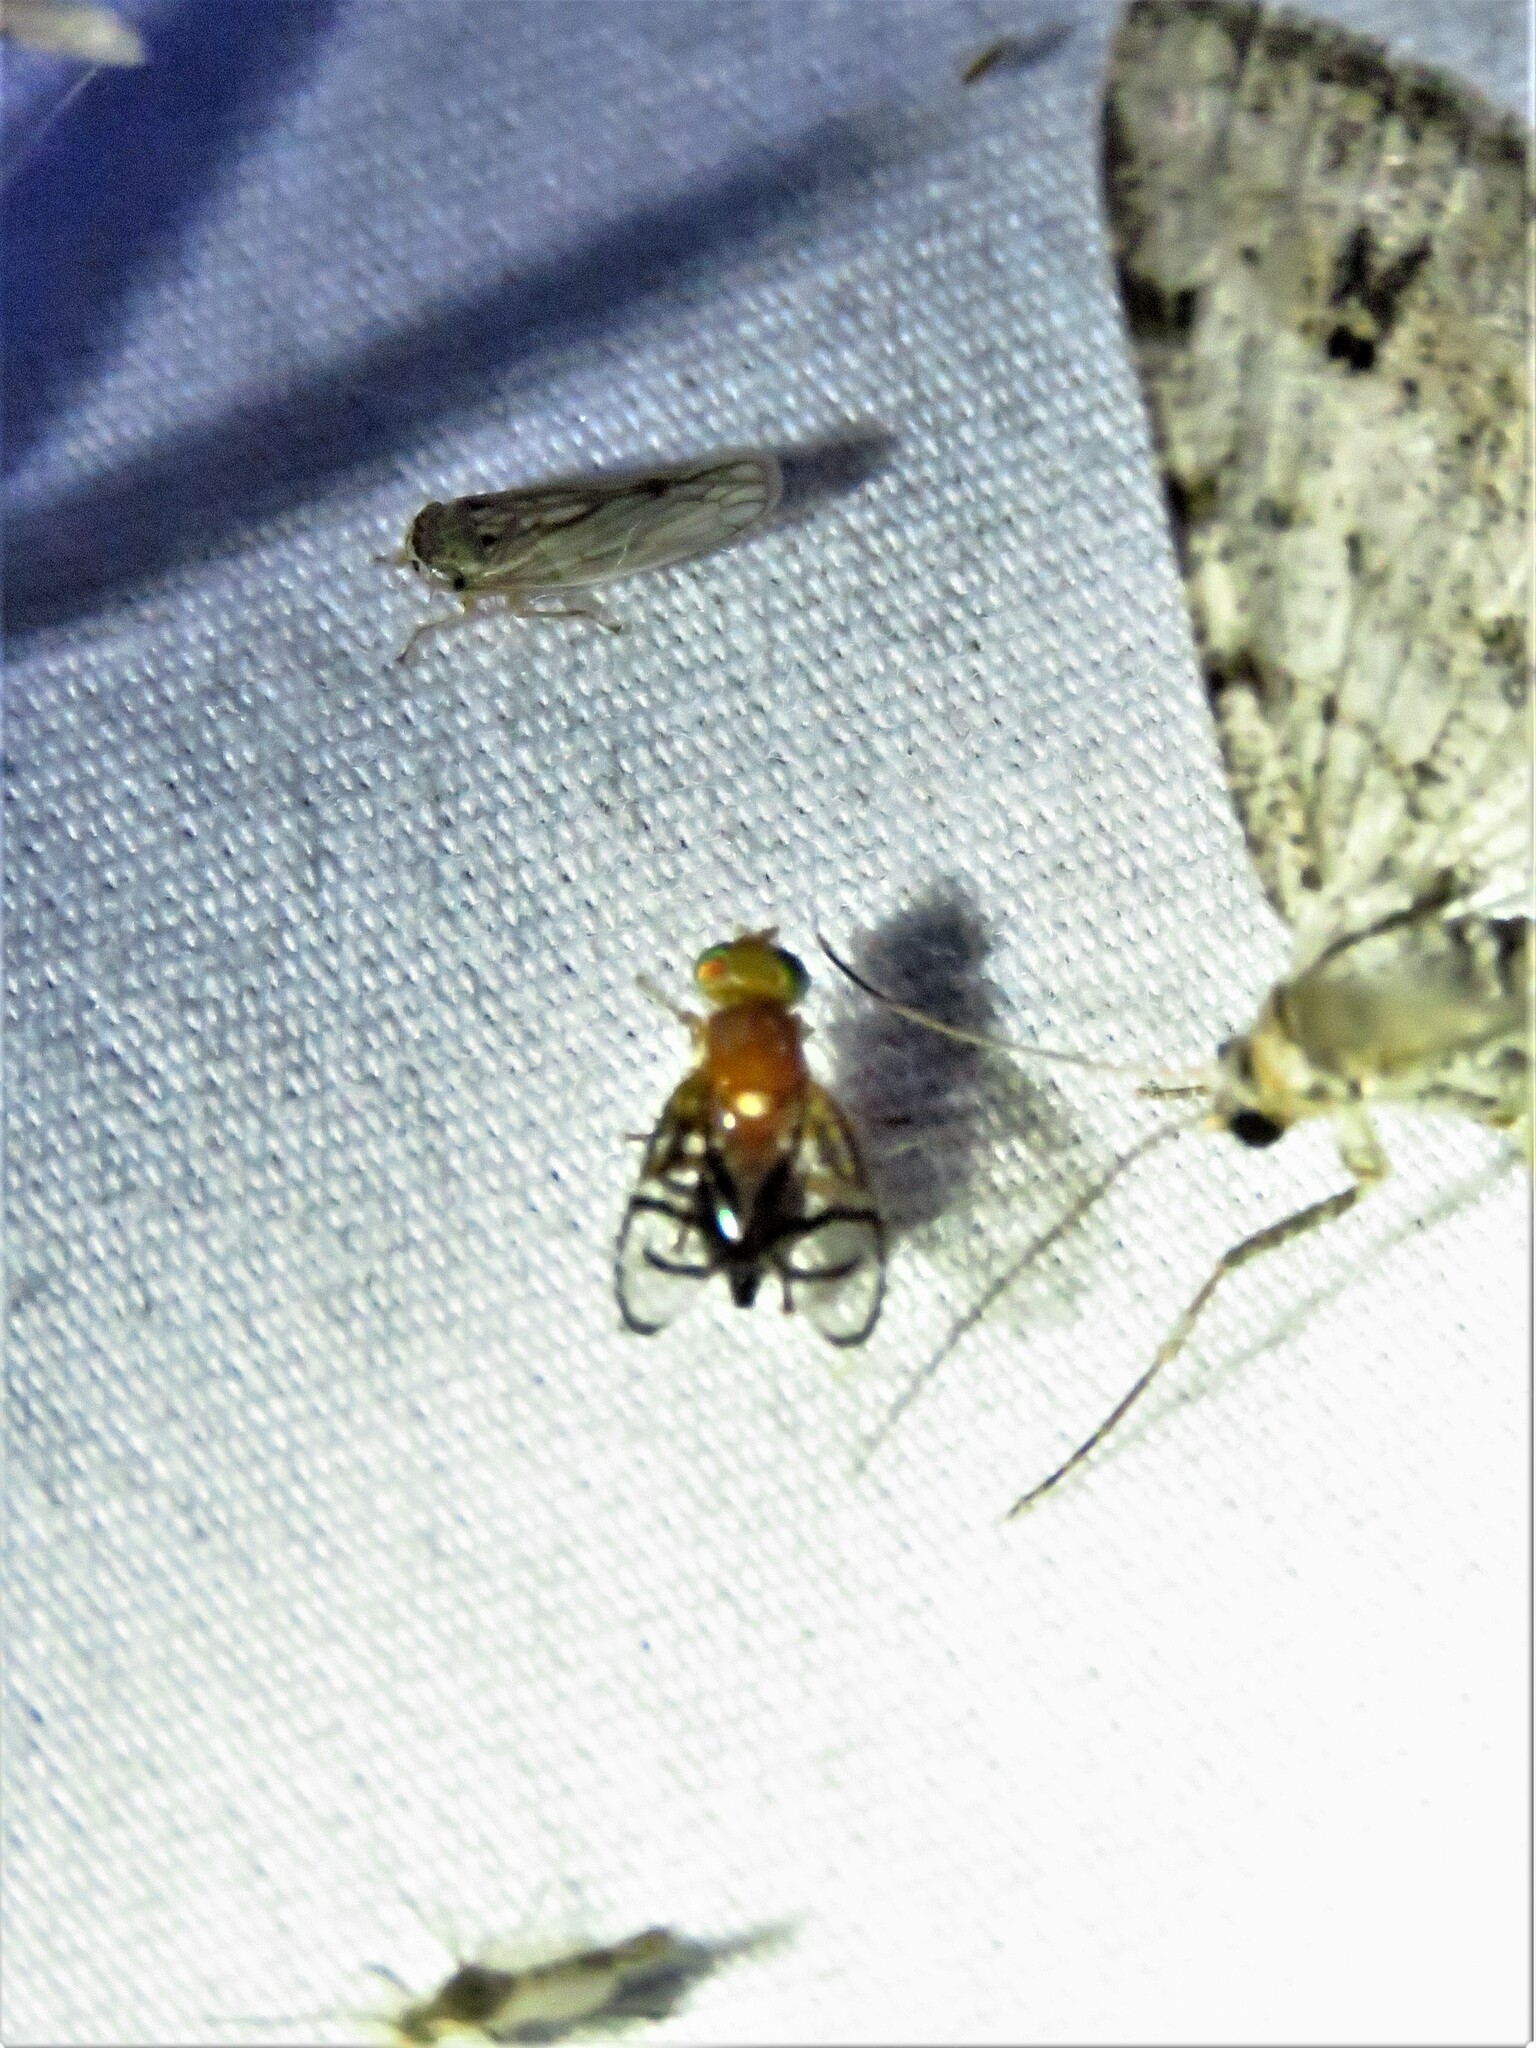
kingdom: Animalia
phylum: Arthropoda
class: Insecta
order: Diptera
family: Tephritidae
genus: Paraterellia
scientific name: Paraterellia superba
